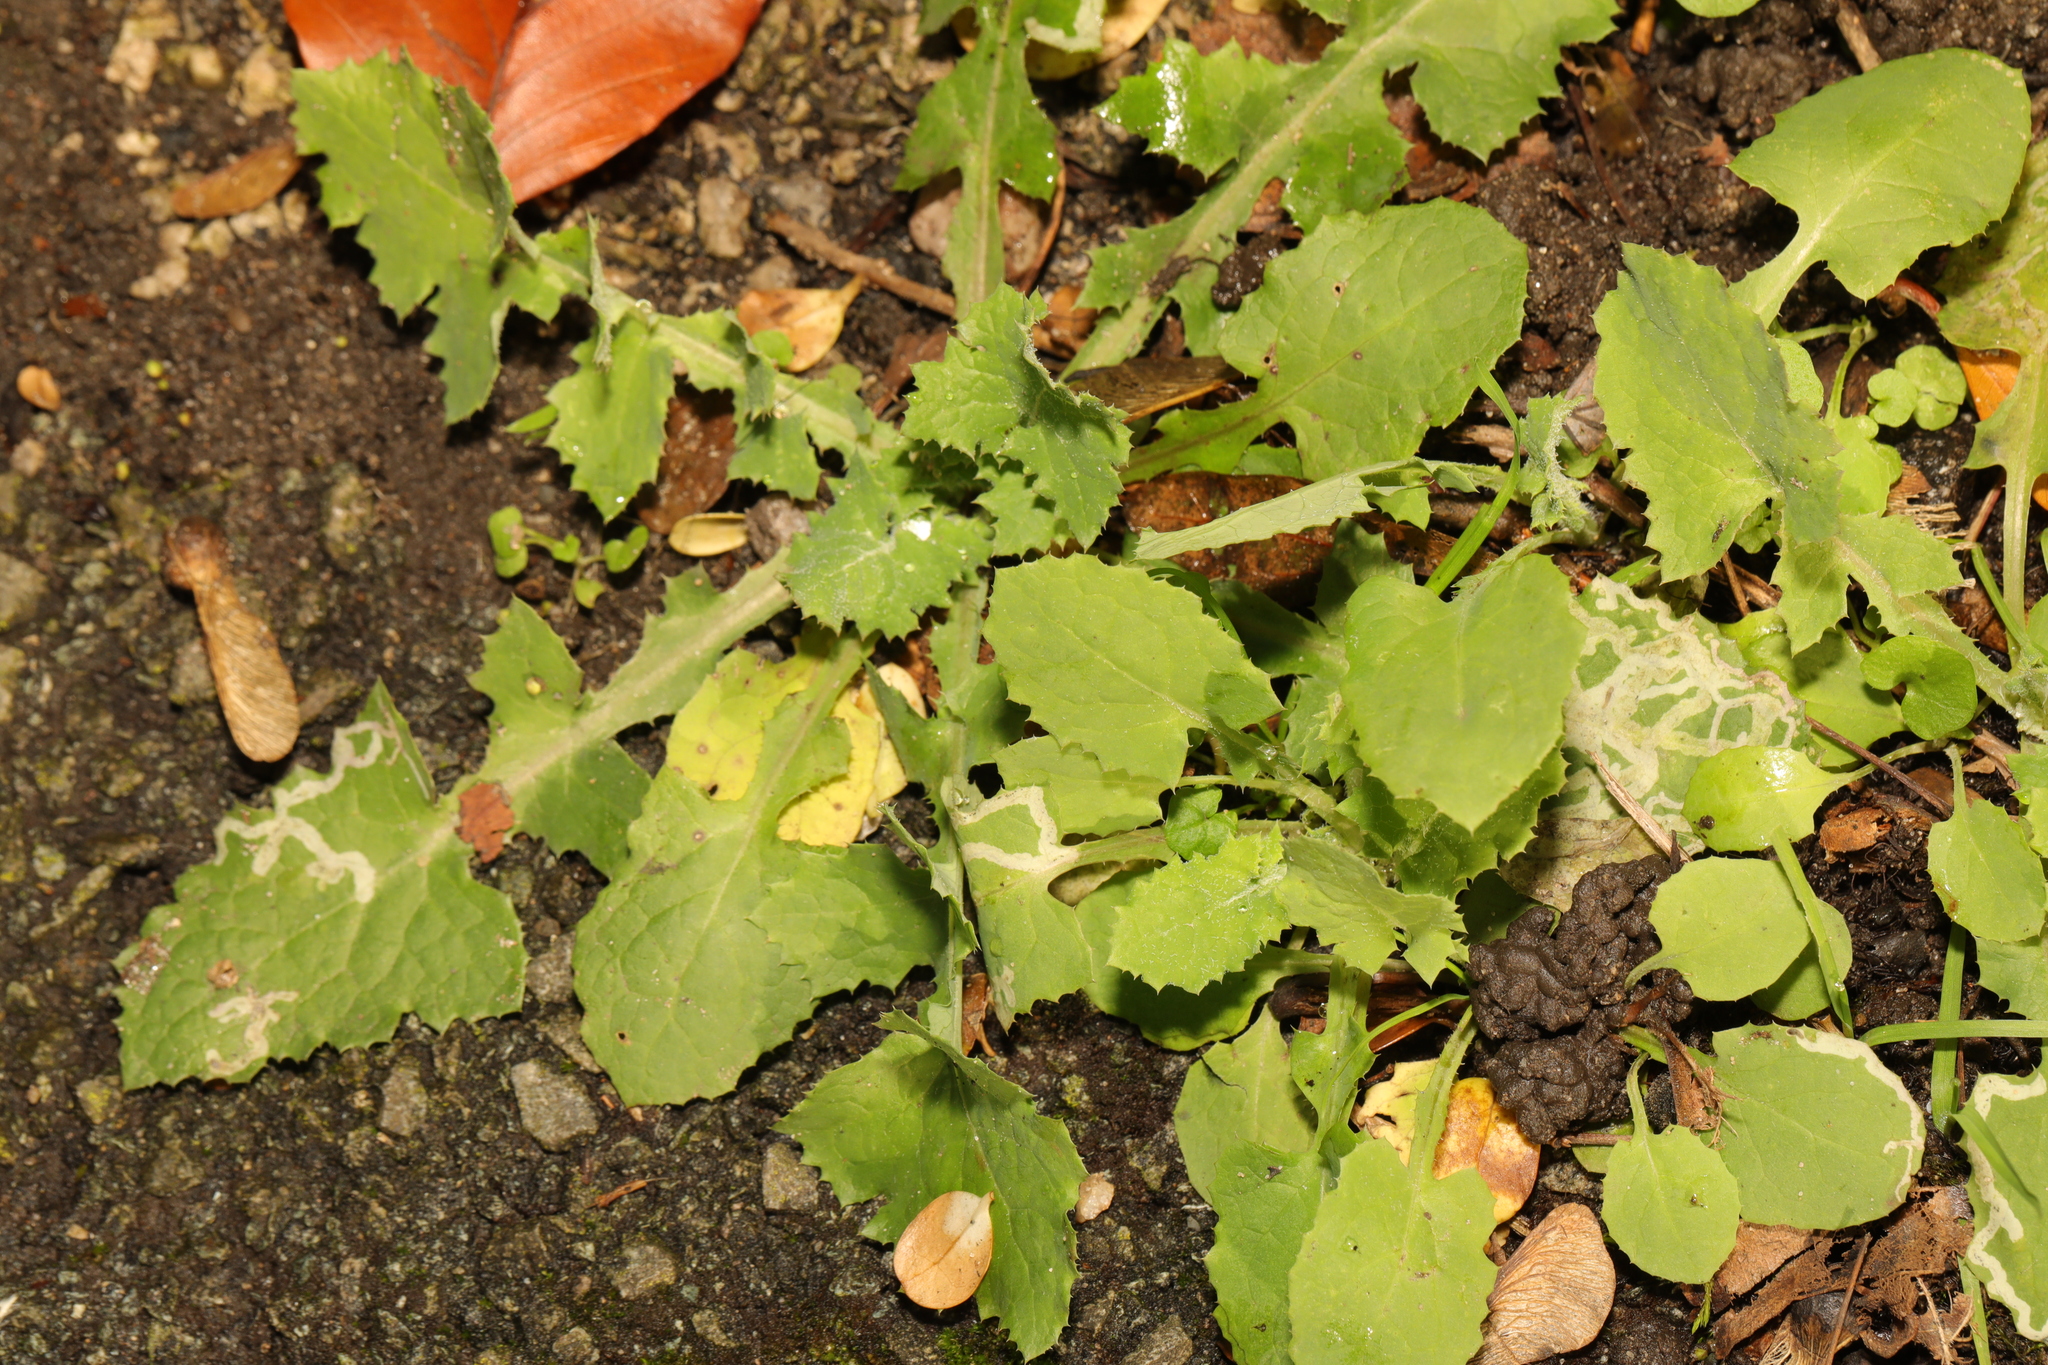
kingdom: Plantae
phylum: Tracheophyta
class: Magnoliopsida
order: Asterales
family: Asteraceae
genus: Sonchus
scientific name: Sonchus oleraceus
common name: Common sowthistle
